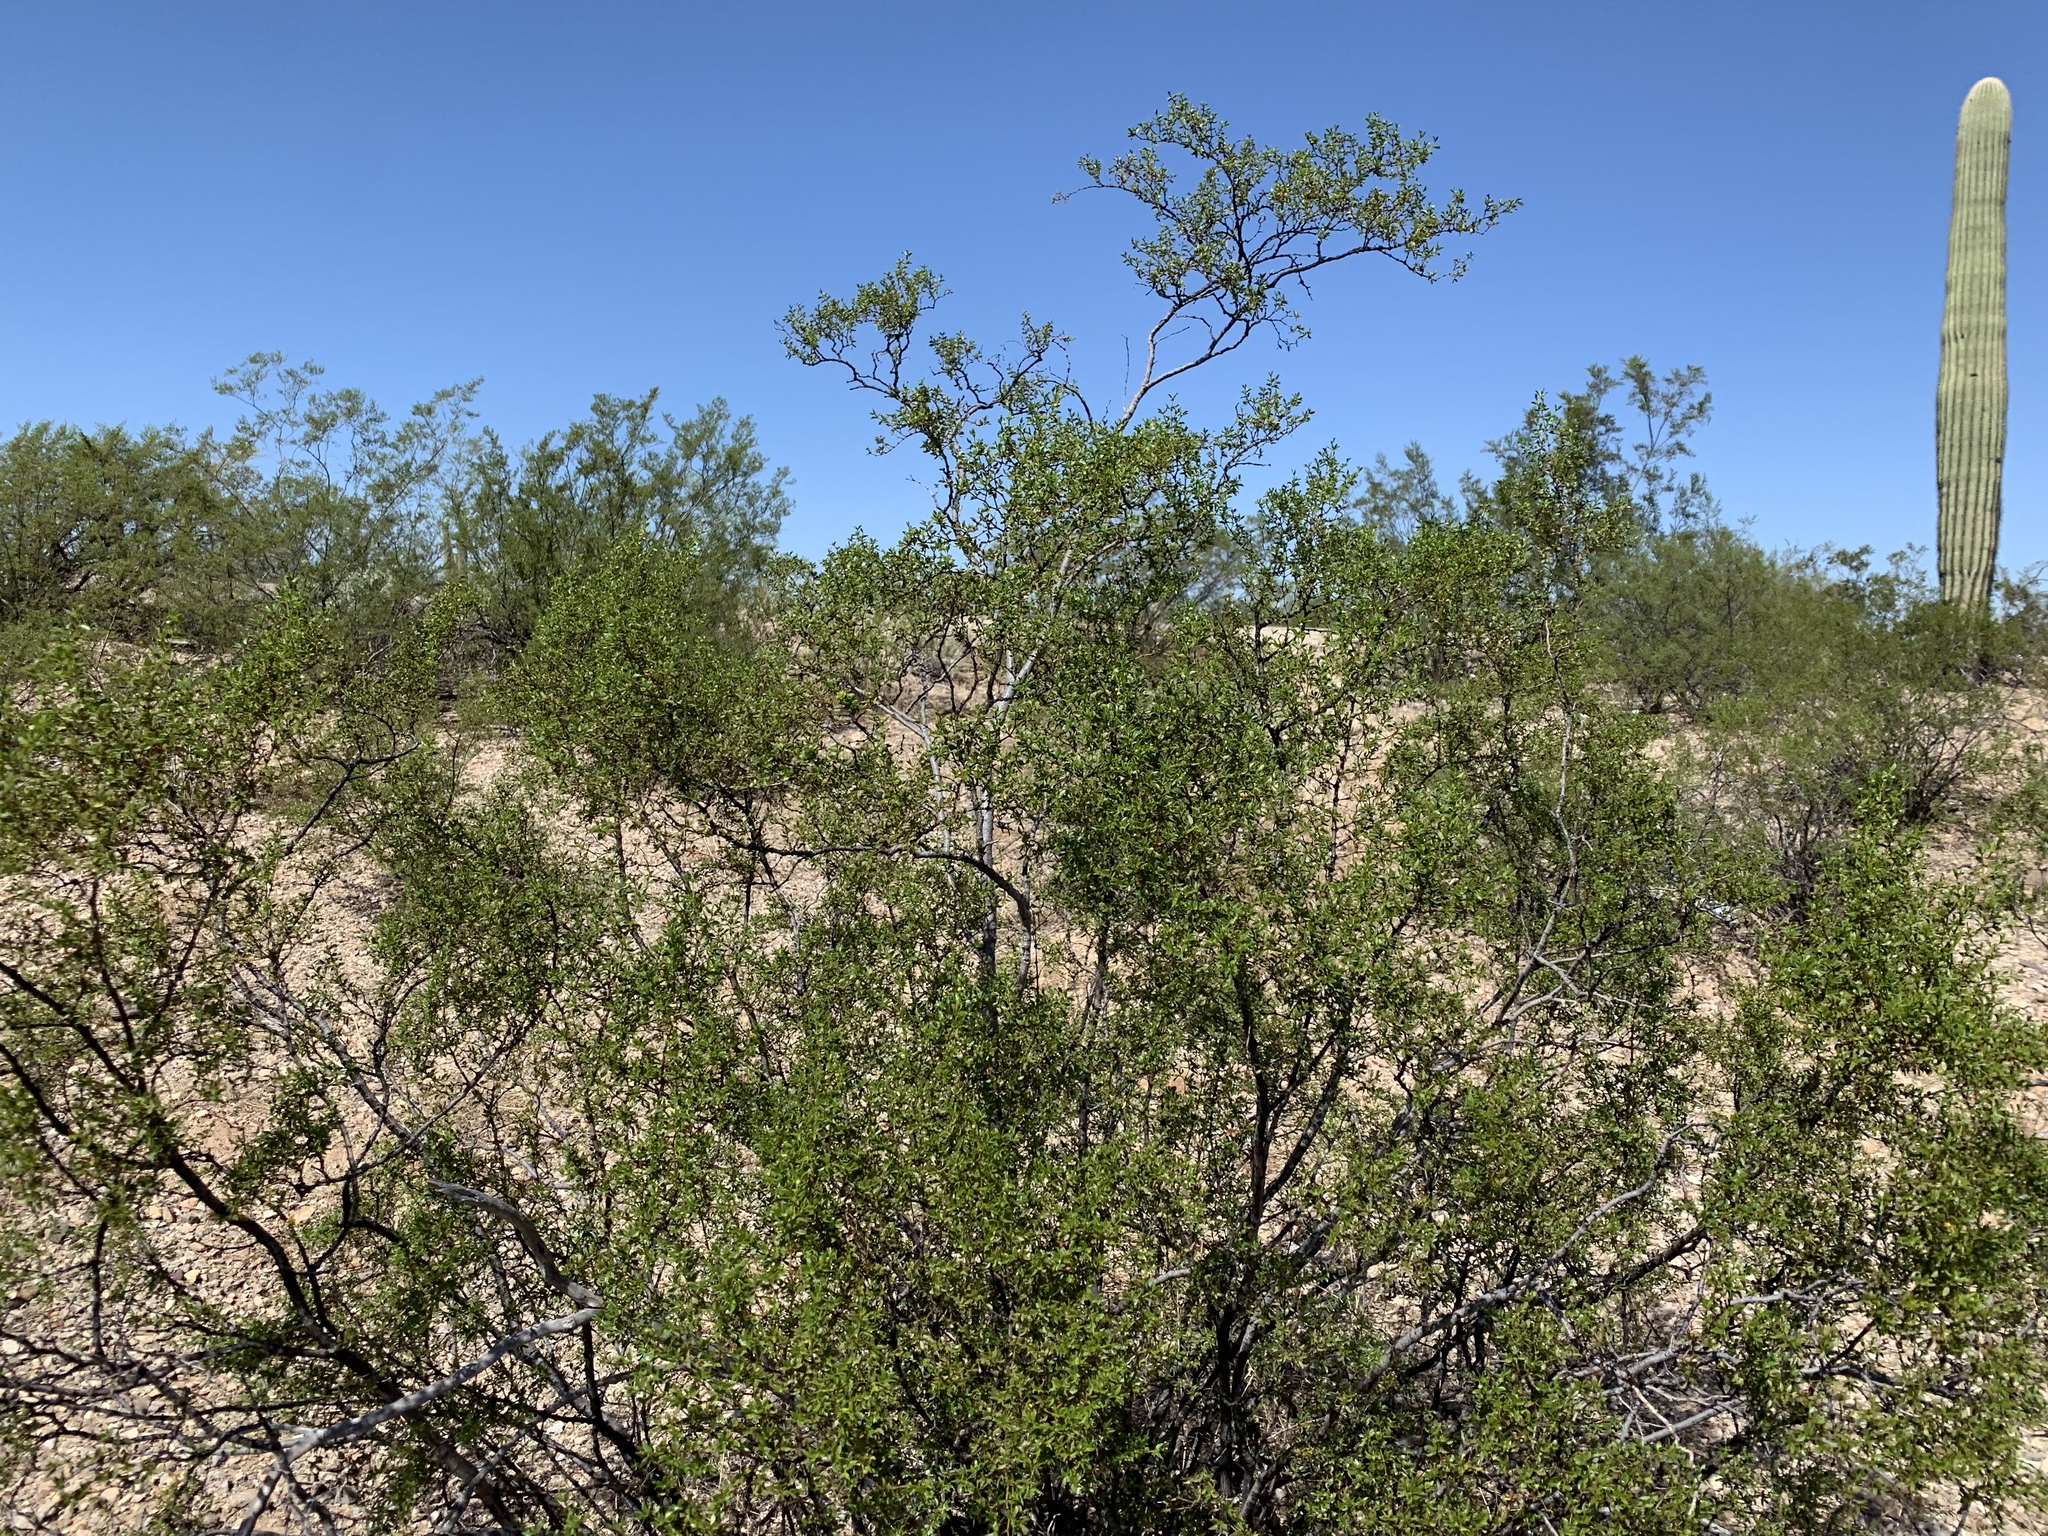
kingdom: Plantae
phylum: Tracheophyta
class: Magnoliopsida
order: Zygophyllales
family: Zygophyllaceae
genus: Larrea
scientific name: Larrea tridentata
